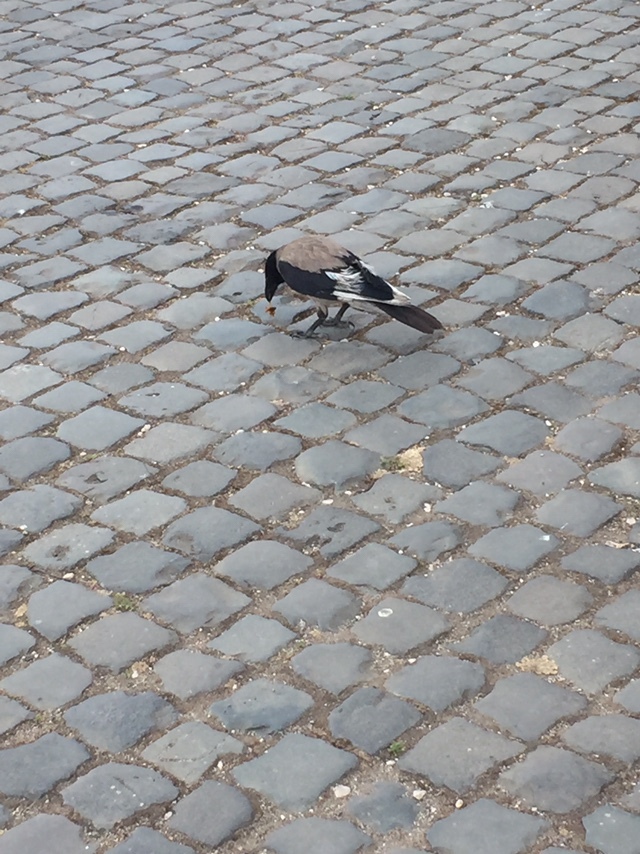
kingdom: Animalia
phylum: Chordata
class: Aves
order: Passeriformes
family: Corvidae
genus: Corvus
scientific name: Corvus cornix
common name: Hooded crow
